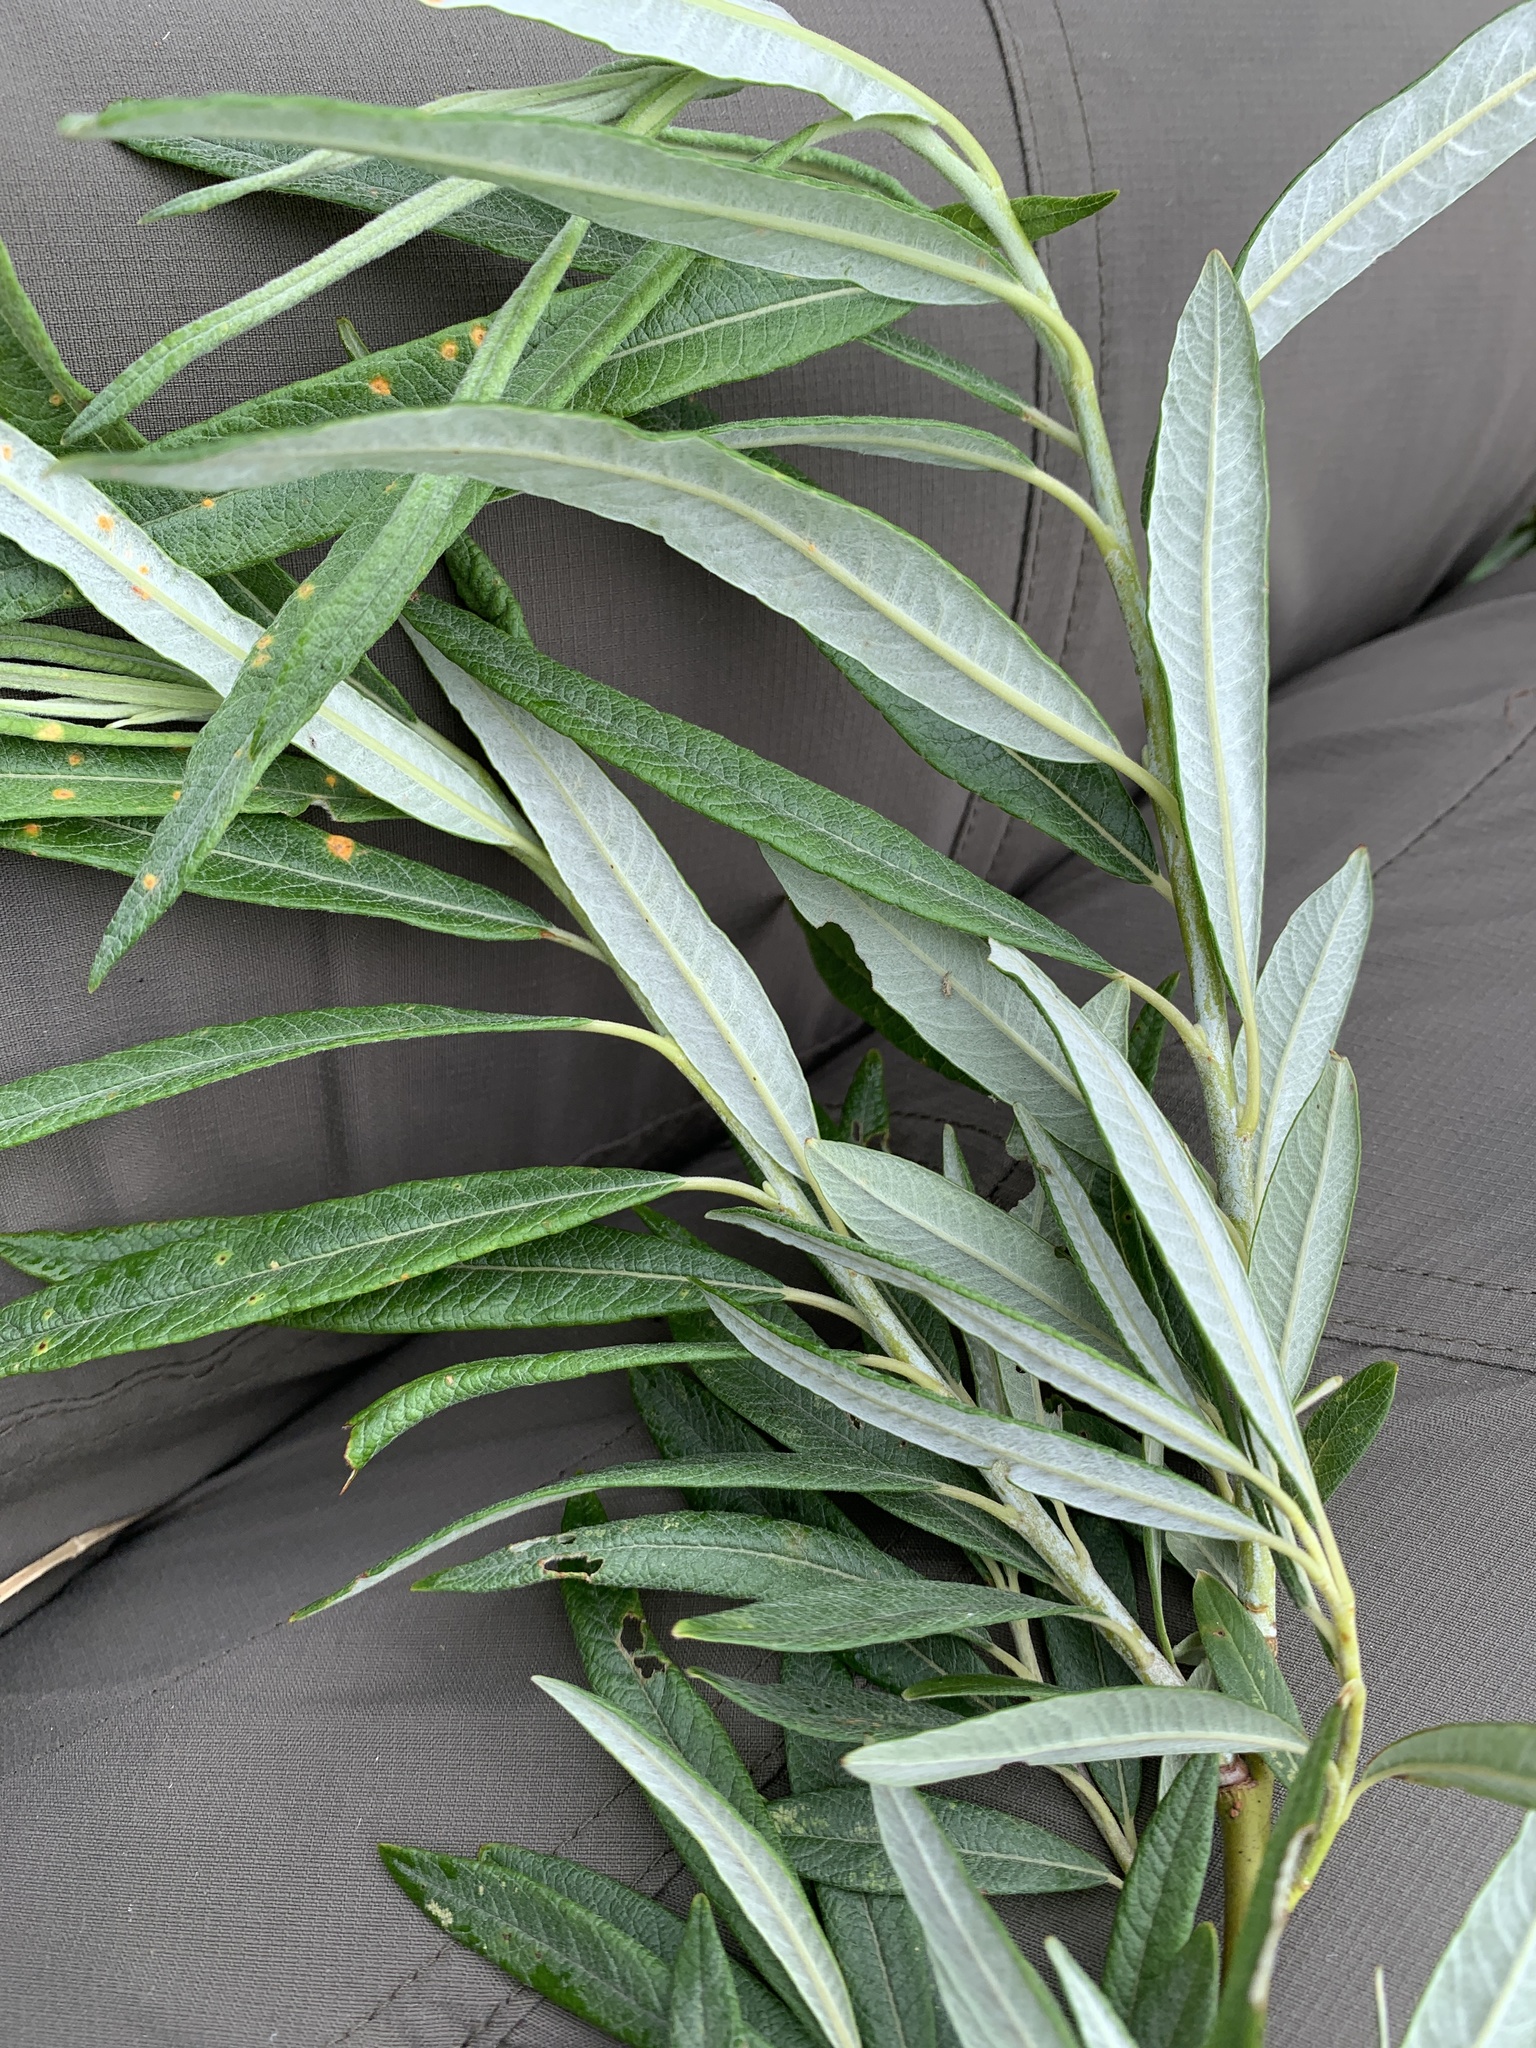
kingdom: Plantae
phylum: Tracheophyta
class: Magnoliopsida
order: Malpighiales
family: Salicaceae
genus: Salix
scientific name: Salix pellita
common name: Satiny willow
